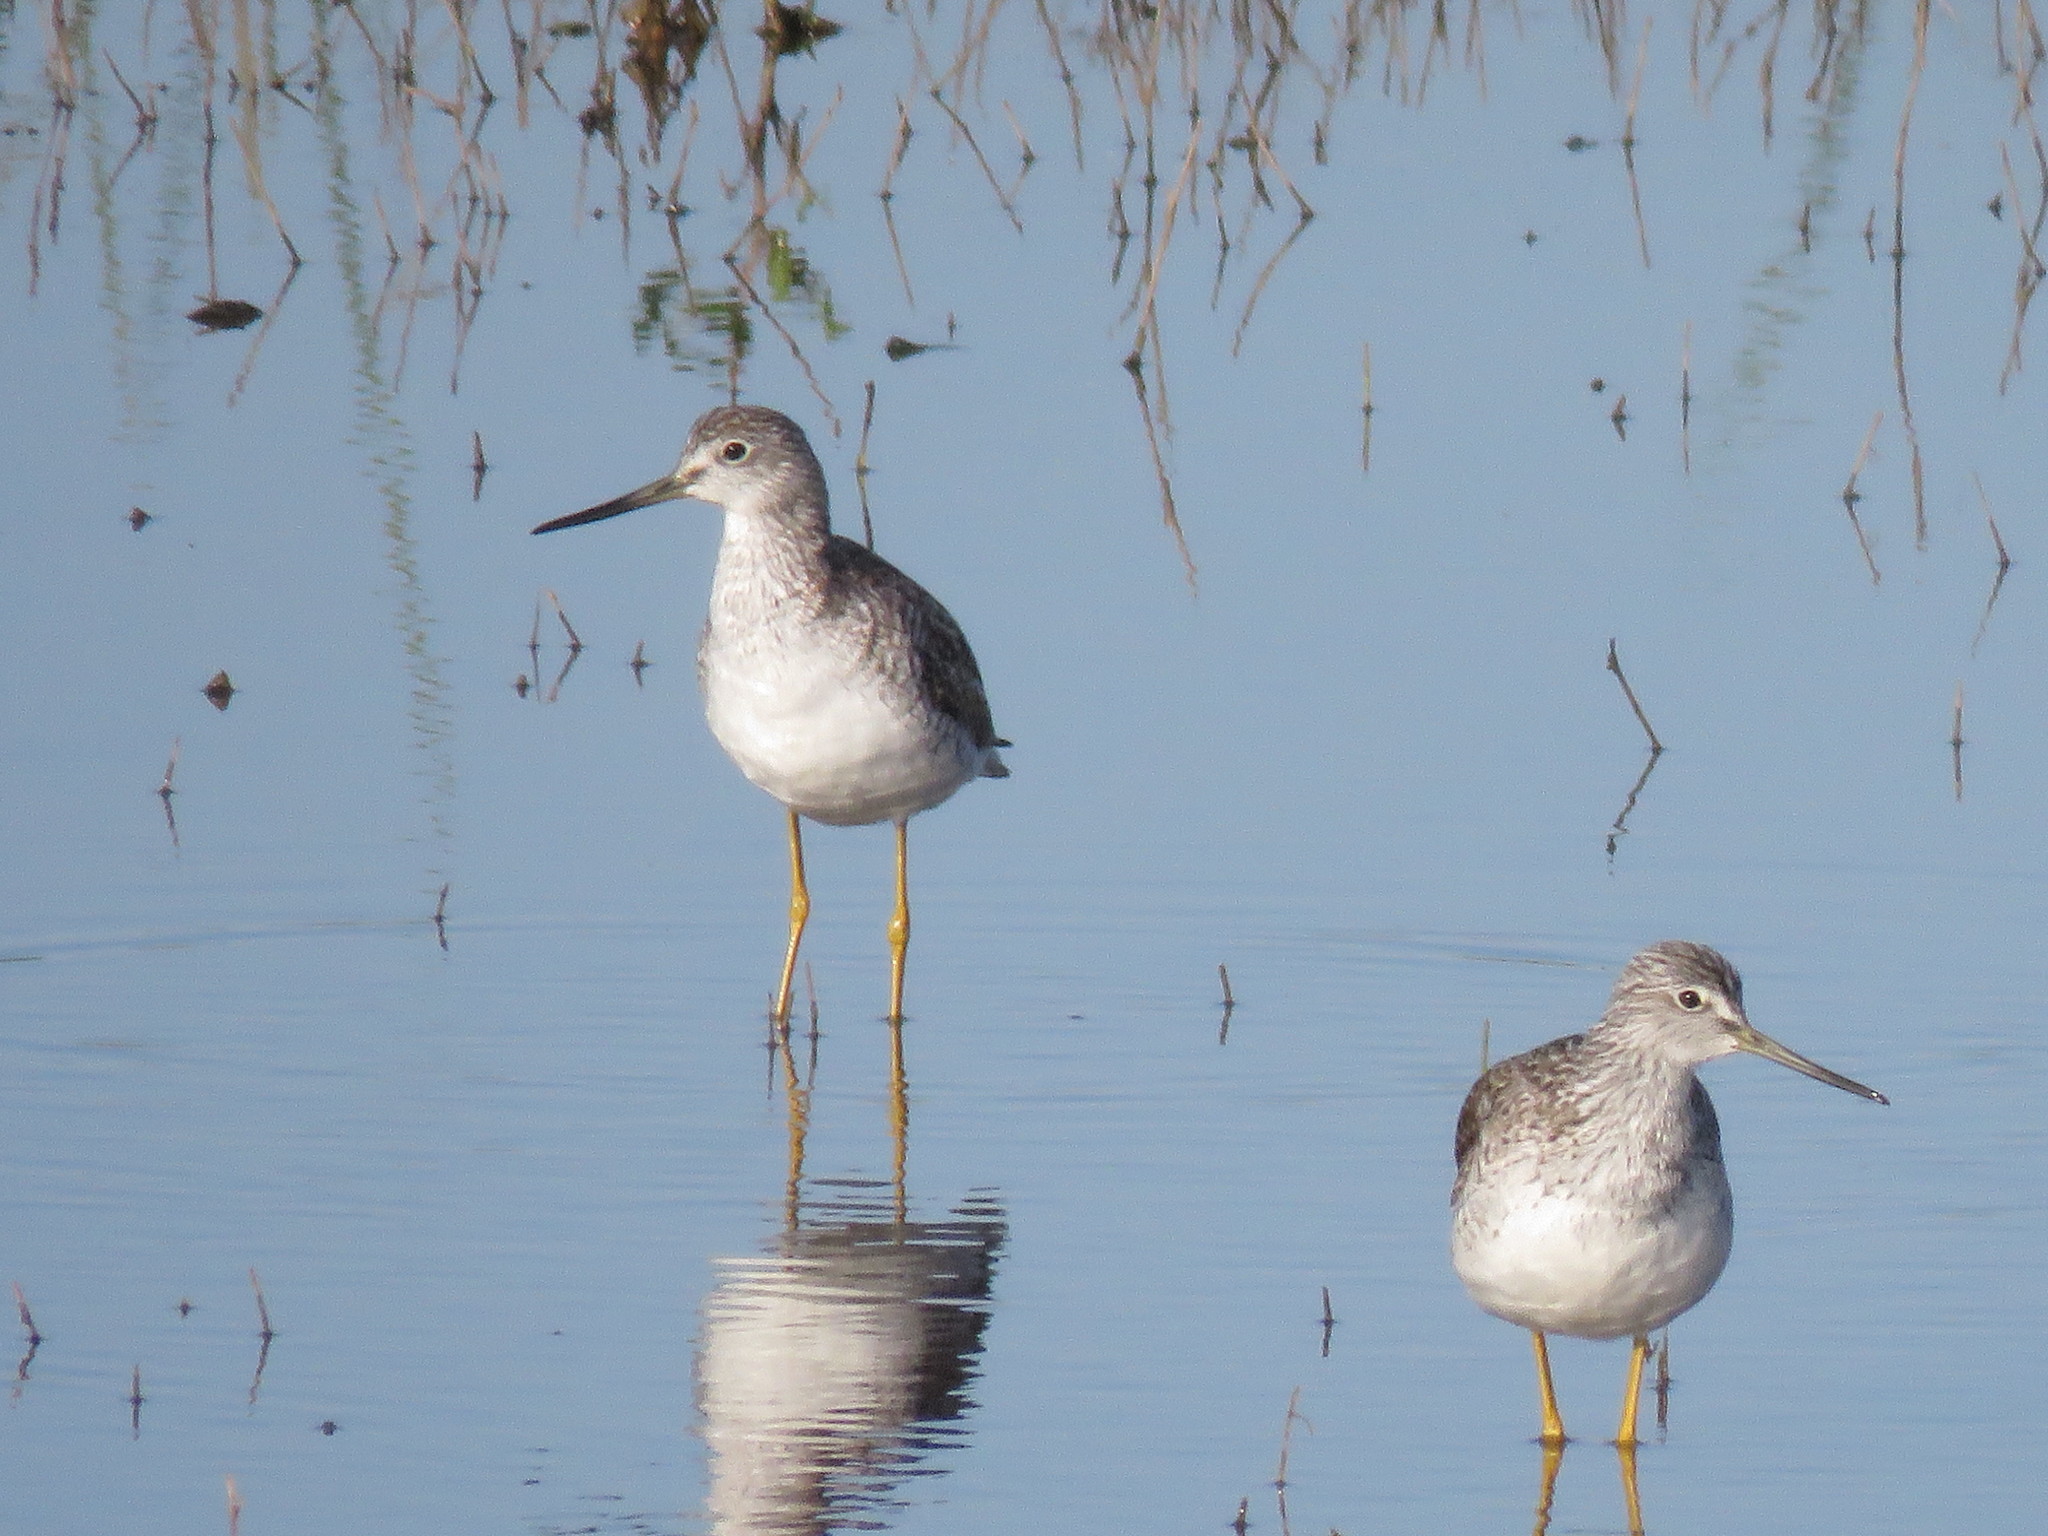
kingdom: Animalia
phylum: Chordata
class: Aves
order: Charadriiformes
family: Scolopacidae
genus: Tringa
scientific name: Tringa melanoleuca
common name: Greater yellowlegs
